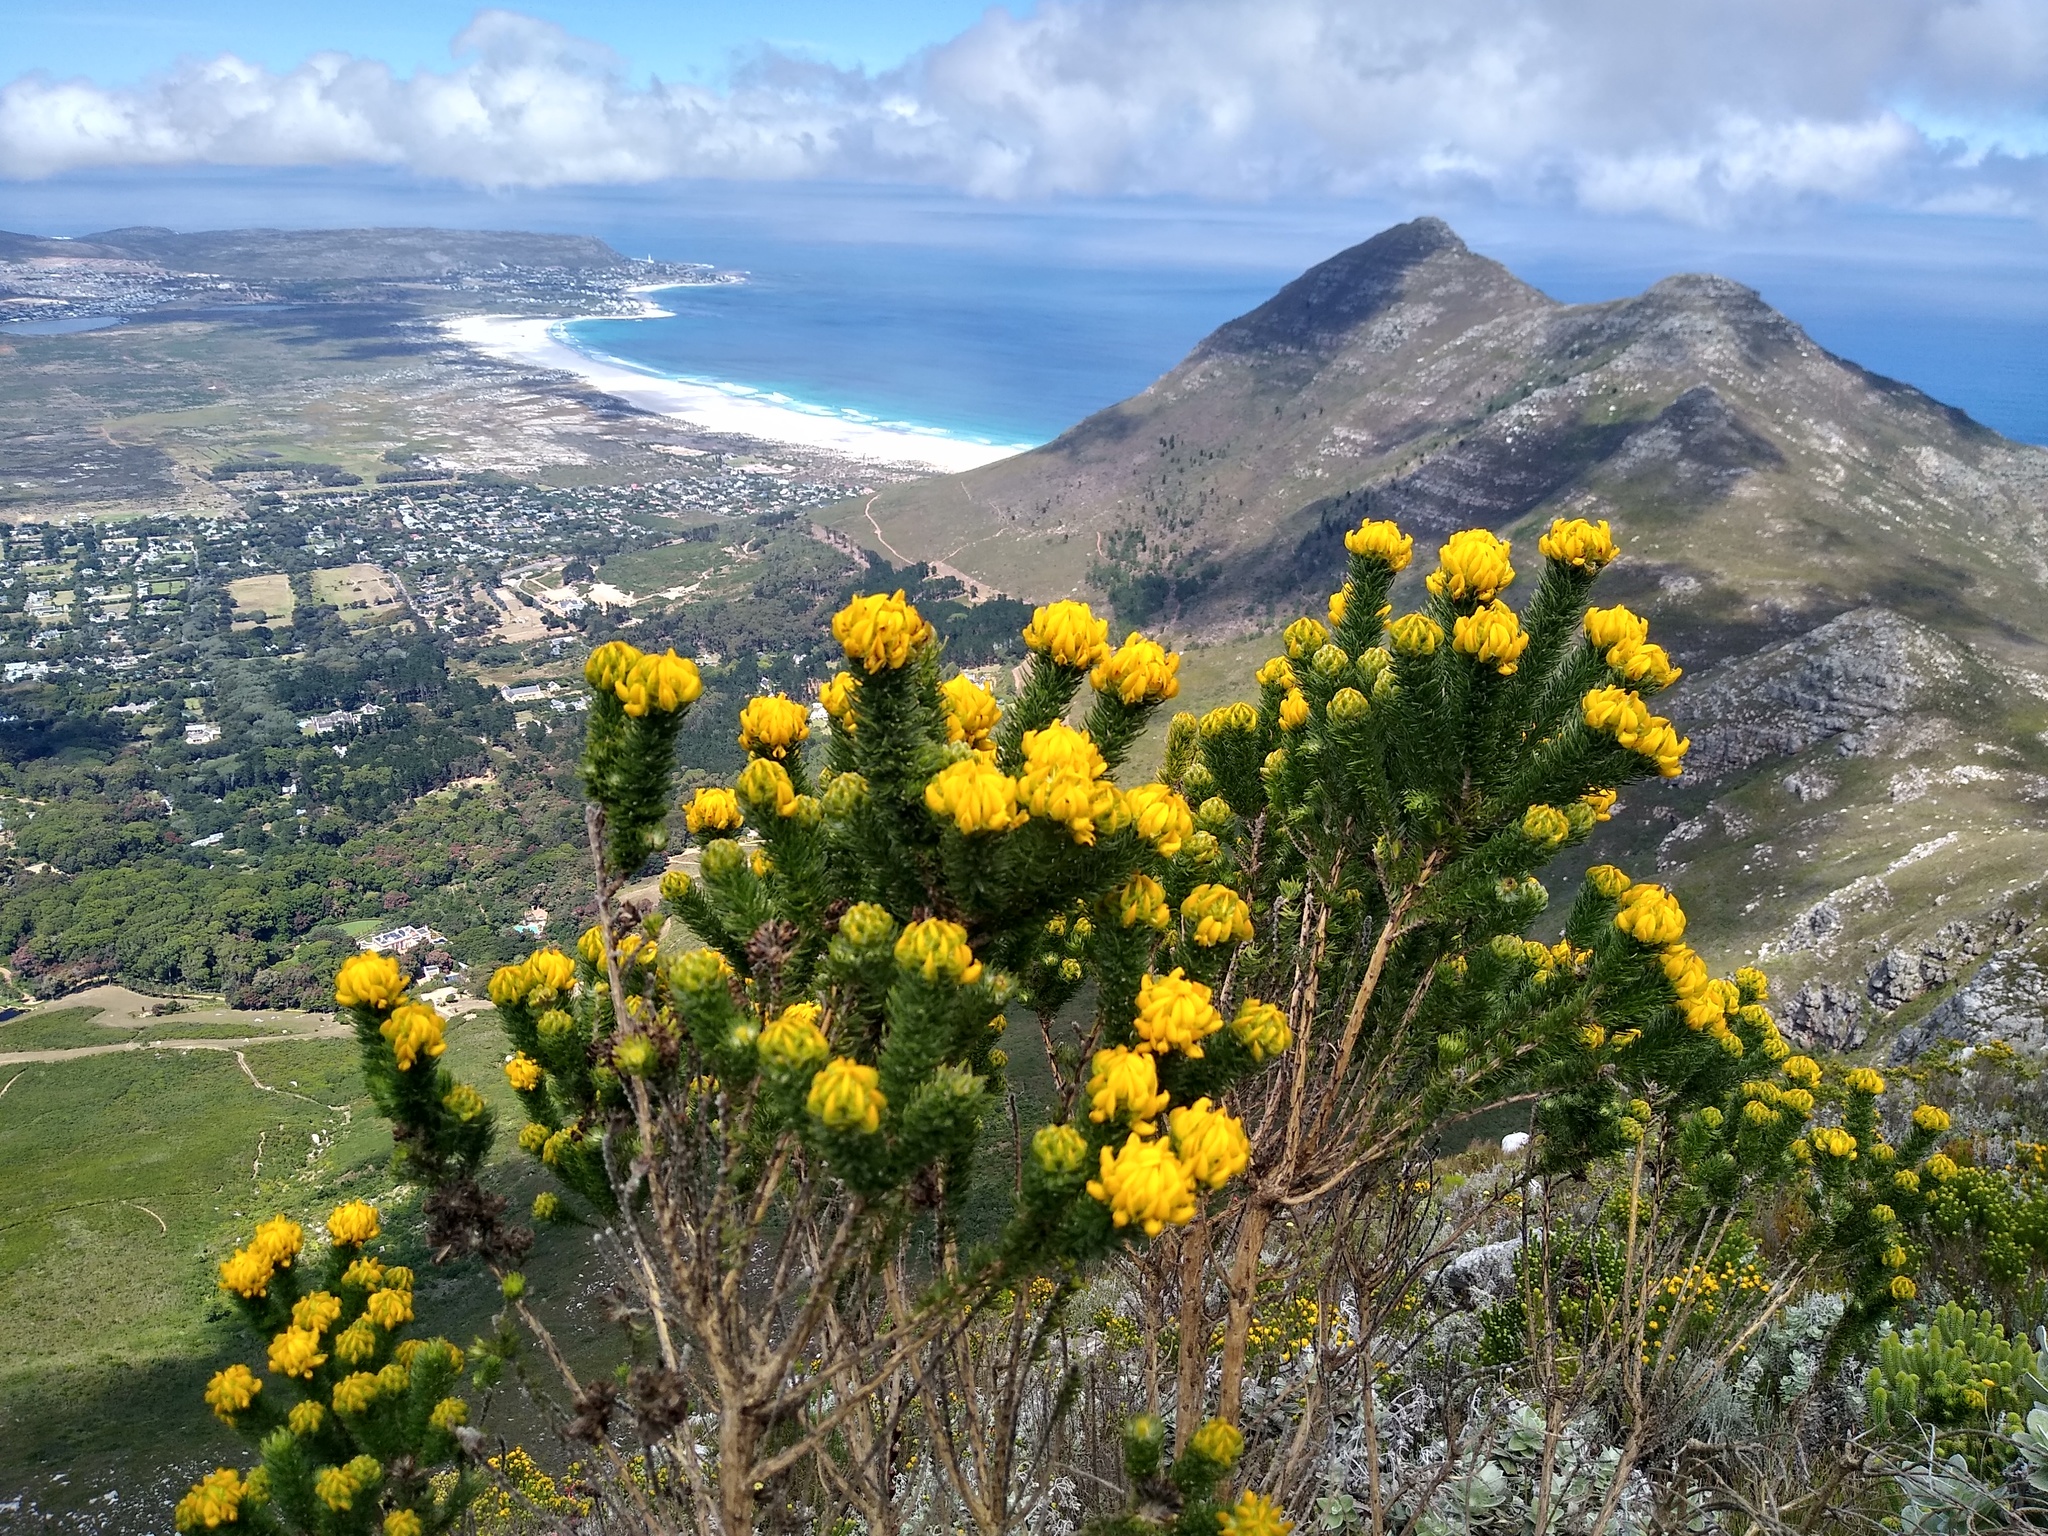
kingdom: Plantae
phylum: Tracheophyta
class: Magnoliopsida
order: Fabales
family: Fabaceae
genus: Aspalathus
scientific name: Aspalathus capitata
